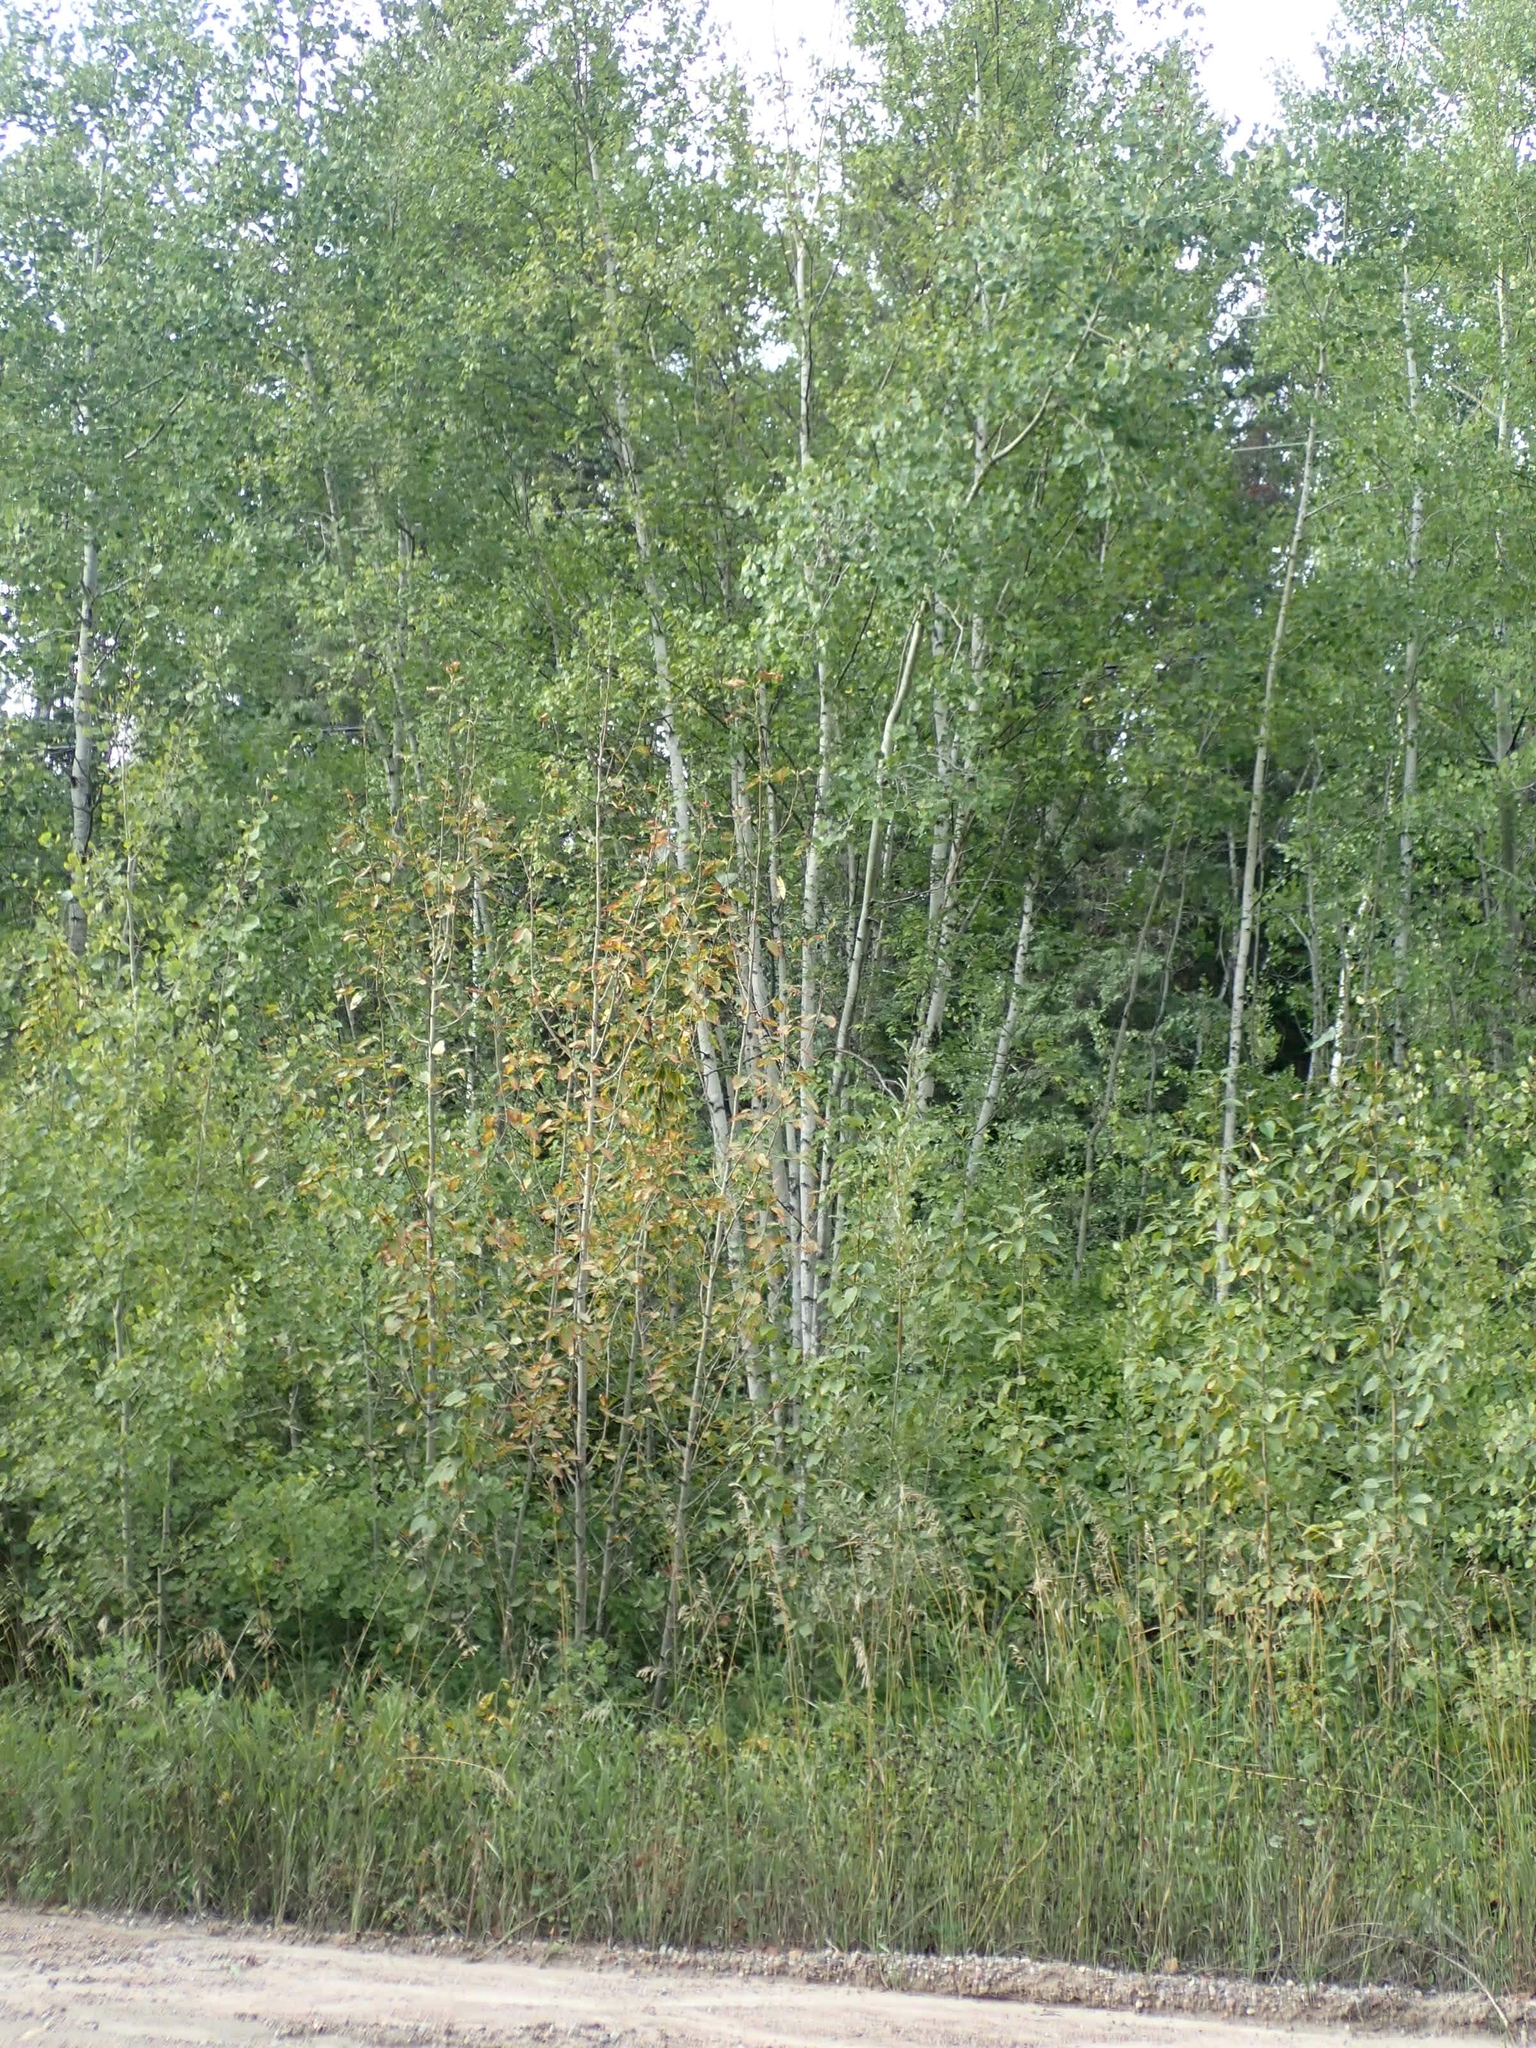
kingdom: Plantae
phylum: Tracheophyta
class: Magnoliopsida
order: Fagales
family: Betulaceae
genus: Betula
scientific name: Betula papyrifera
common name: Paper birch
